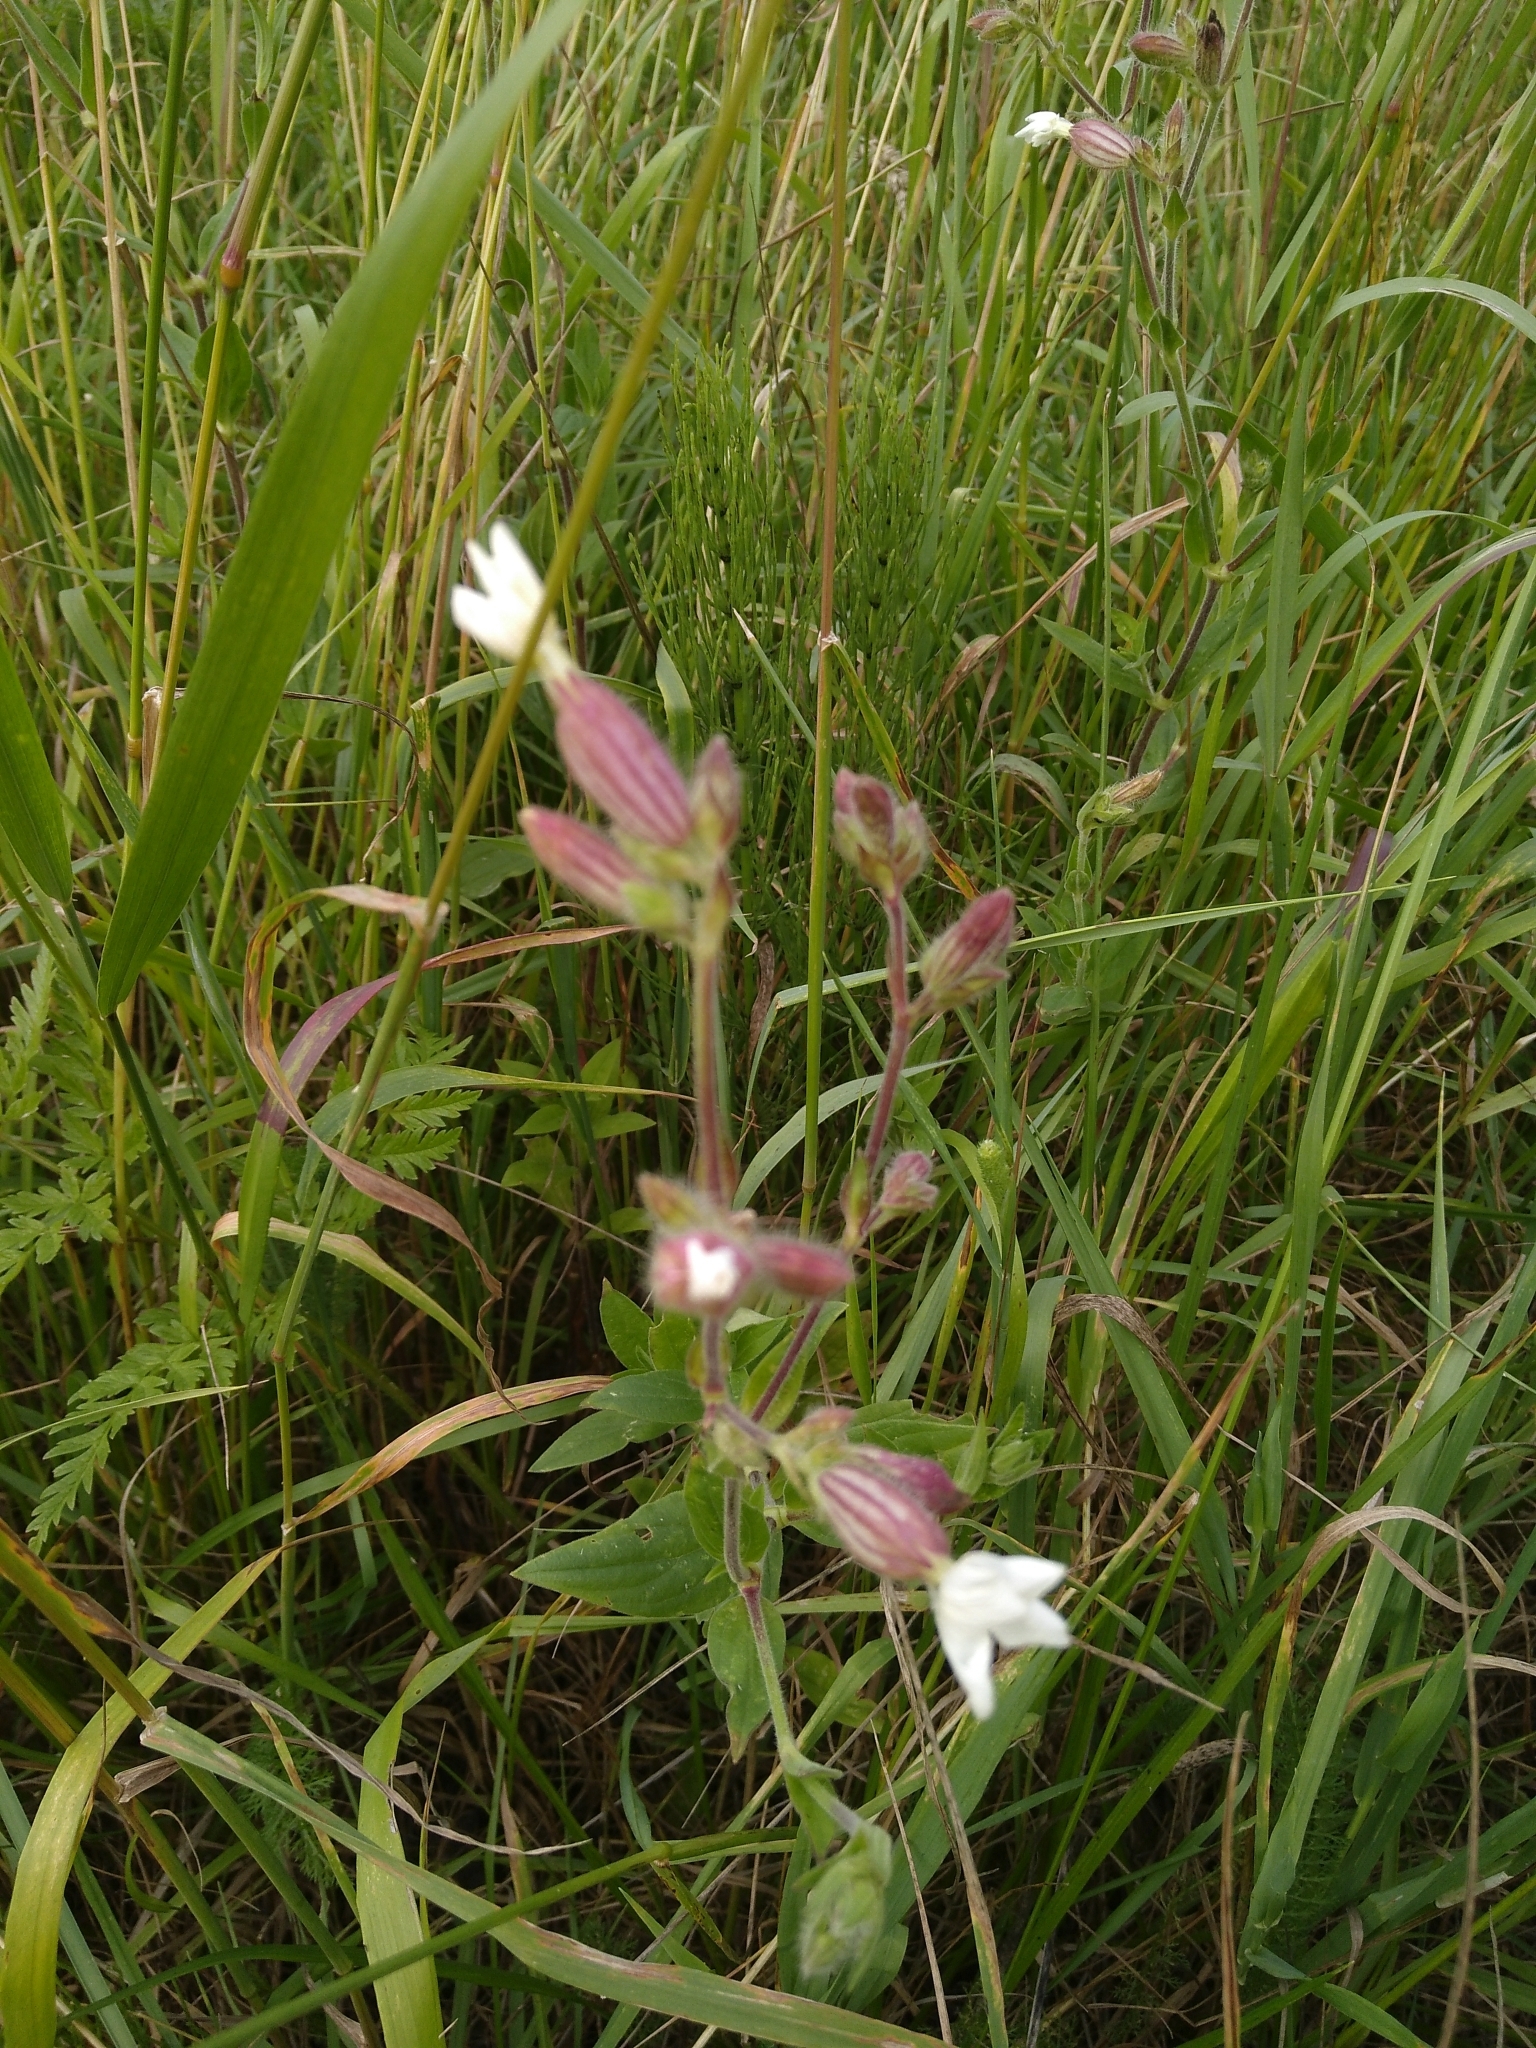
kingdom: Plantae
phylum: Tracheophyta
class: Magnoliopsida
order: Caryophyllales
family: Caryophyllaceae
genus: Silene
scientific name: Silene latifolia
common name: White campion
